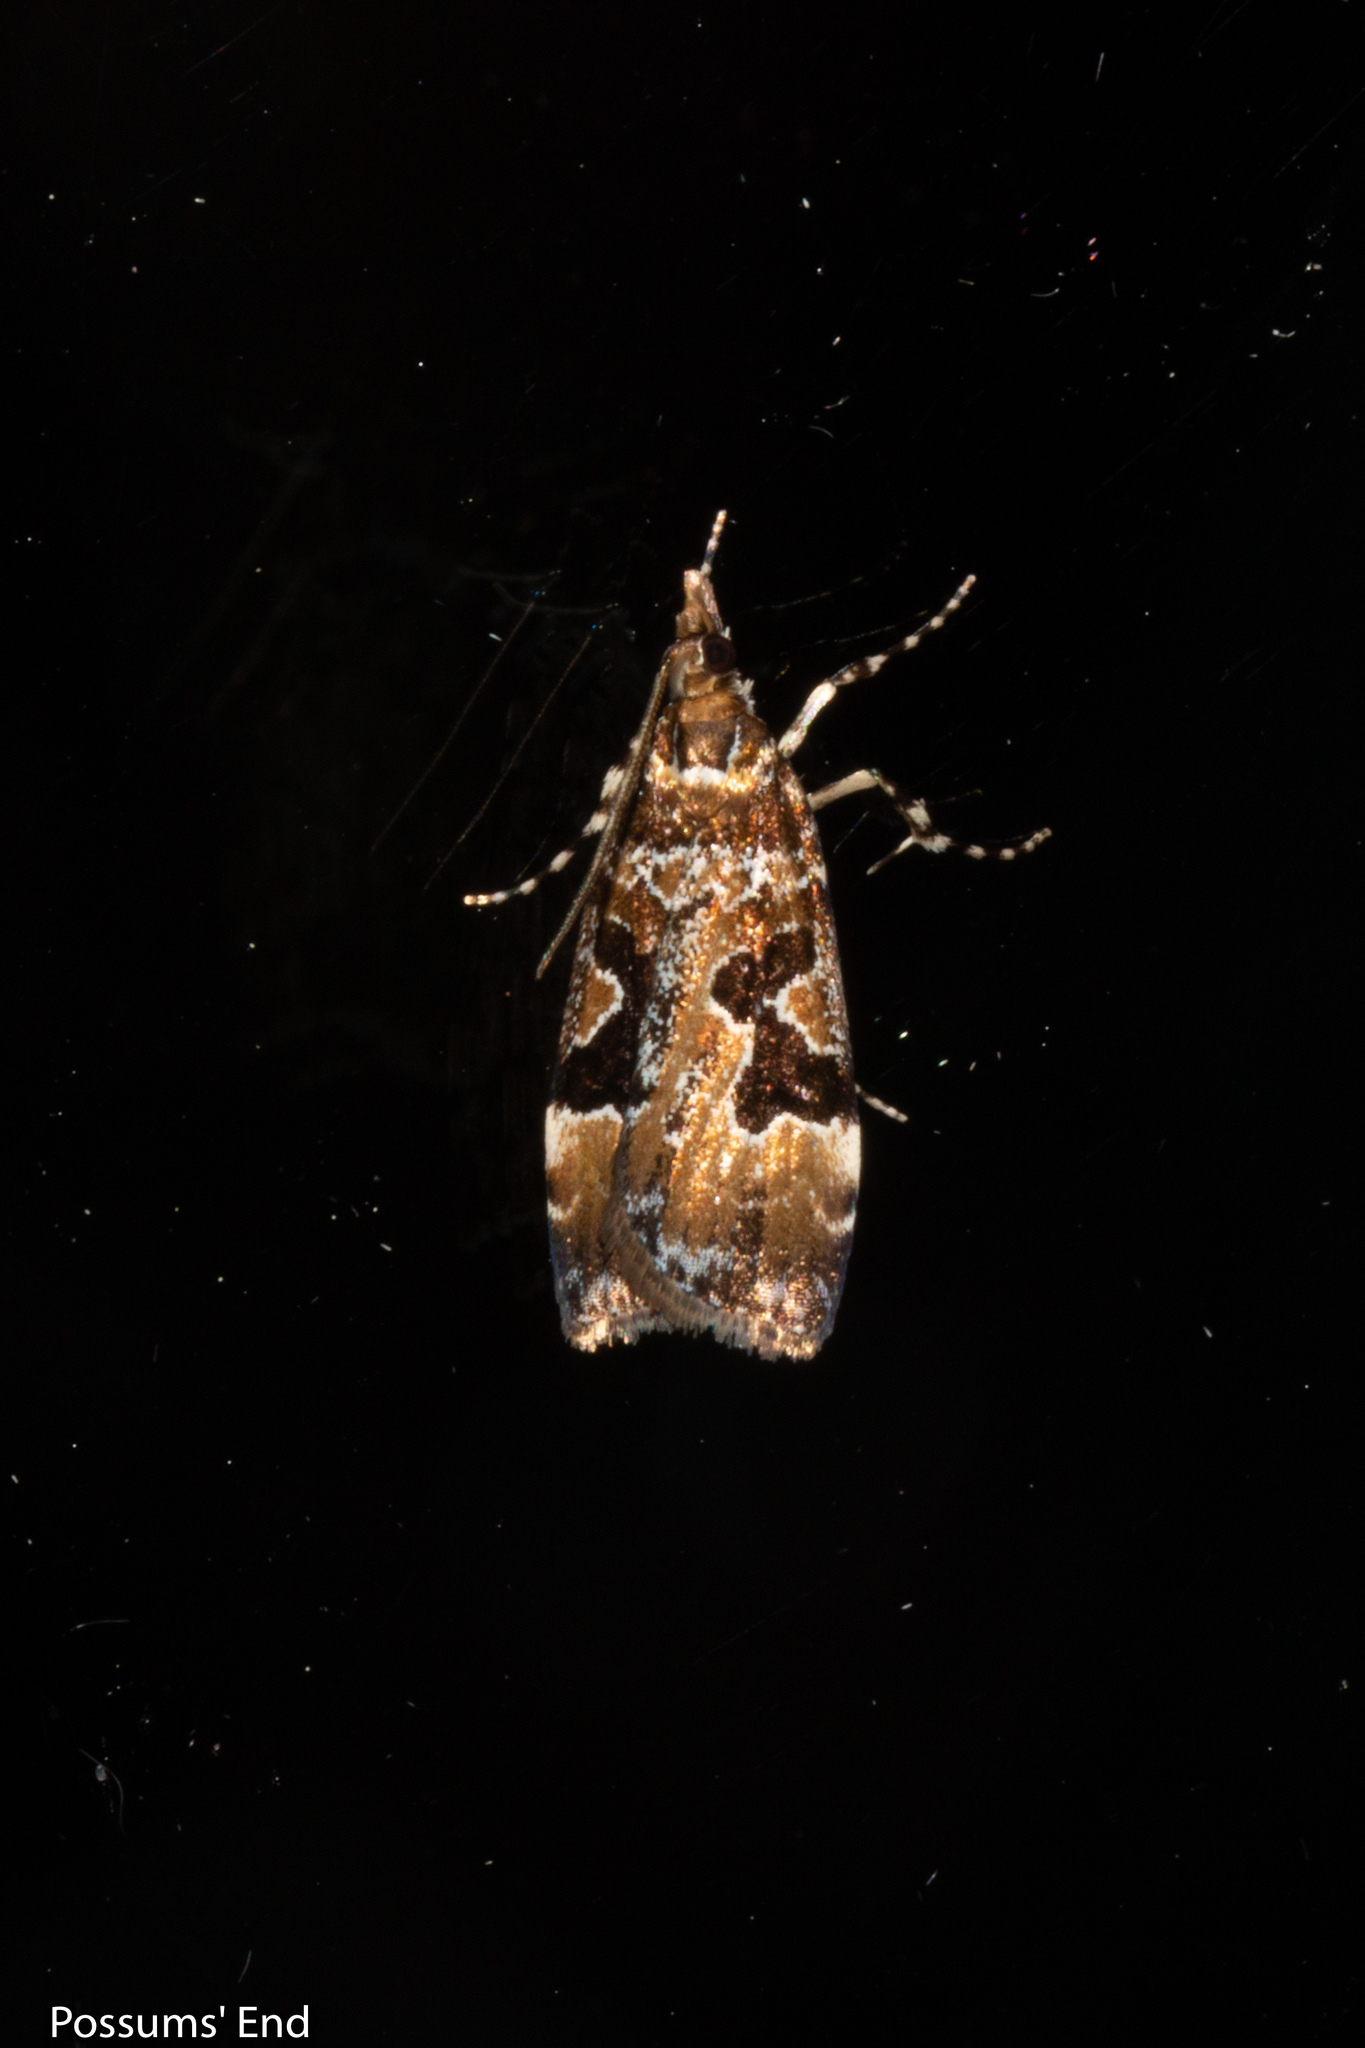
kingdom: Animalia
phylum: Arthropoda
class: Insecta
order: Lepidoptera
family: Crambidae
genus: Scoparia
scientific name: Scoparia ustimacula
